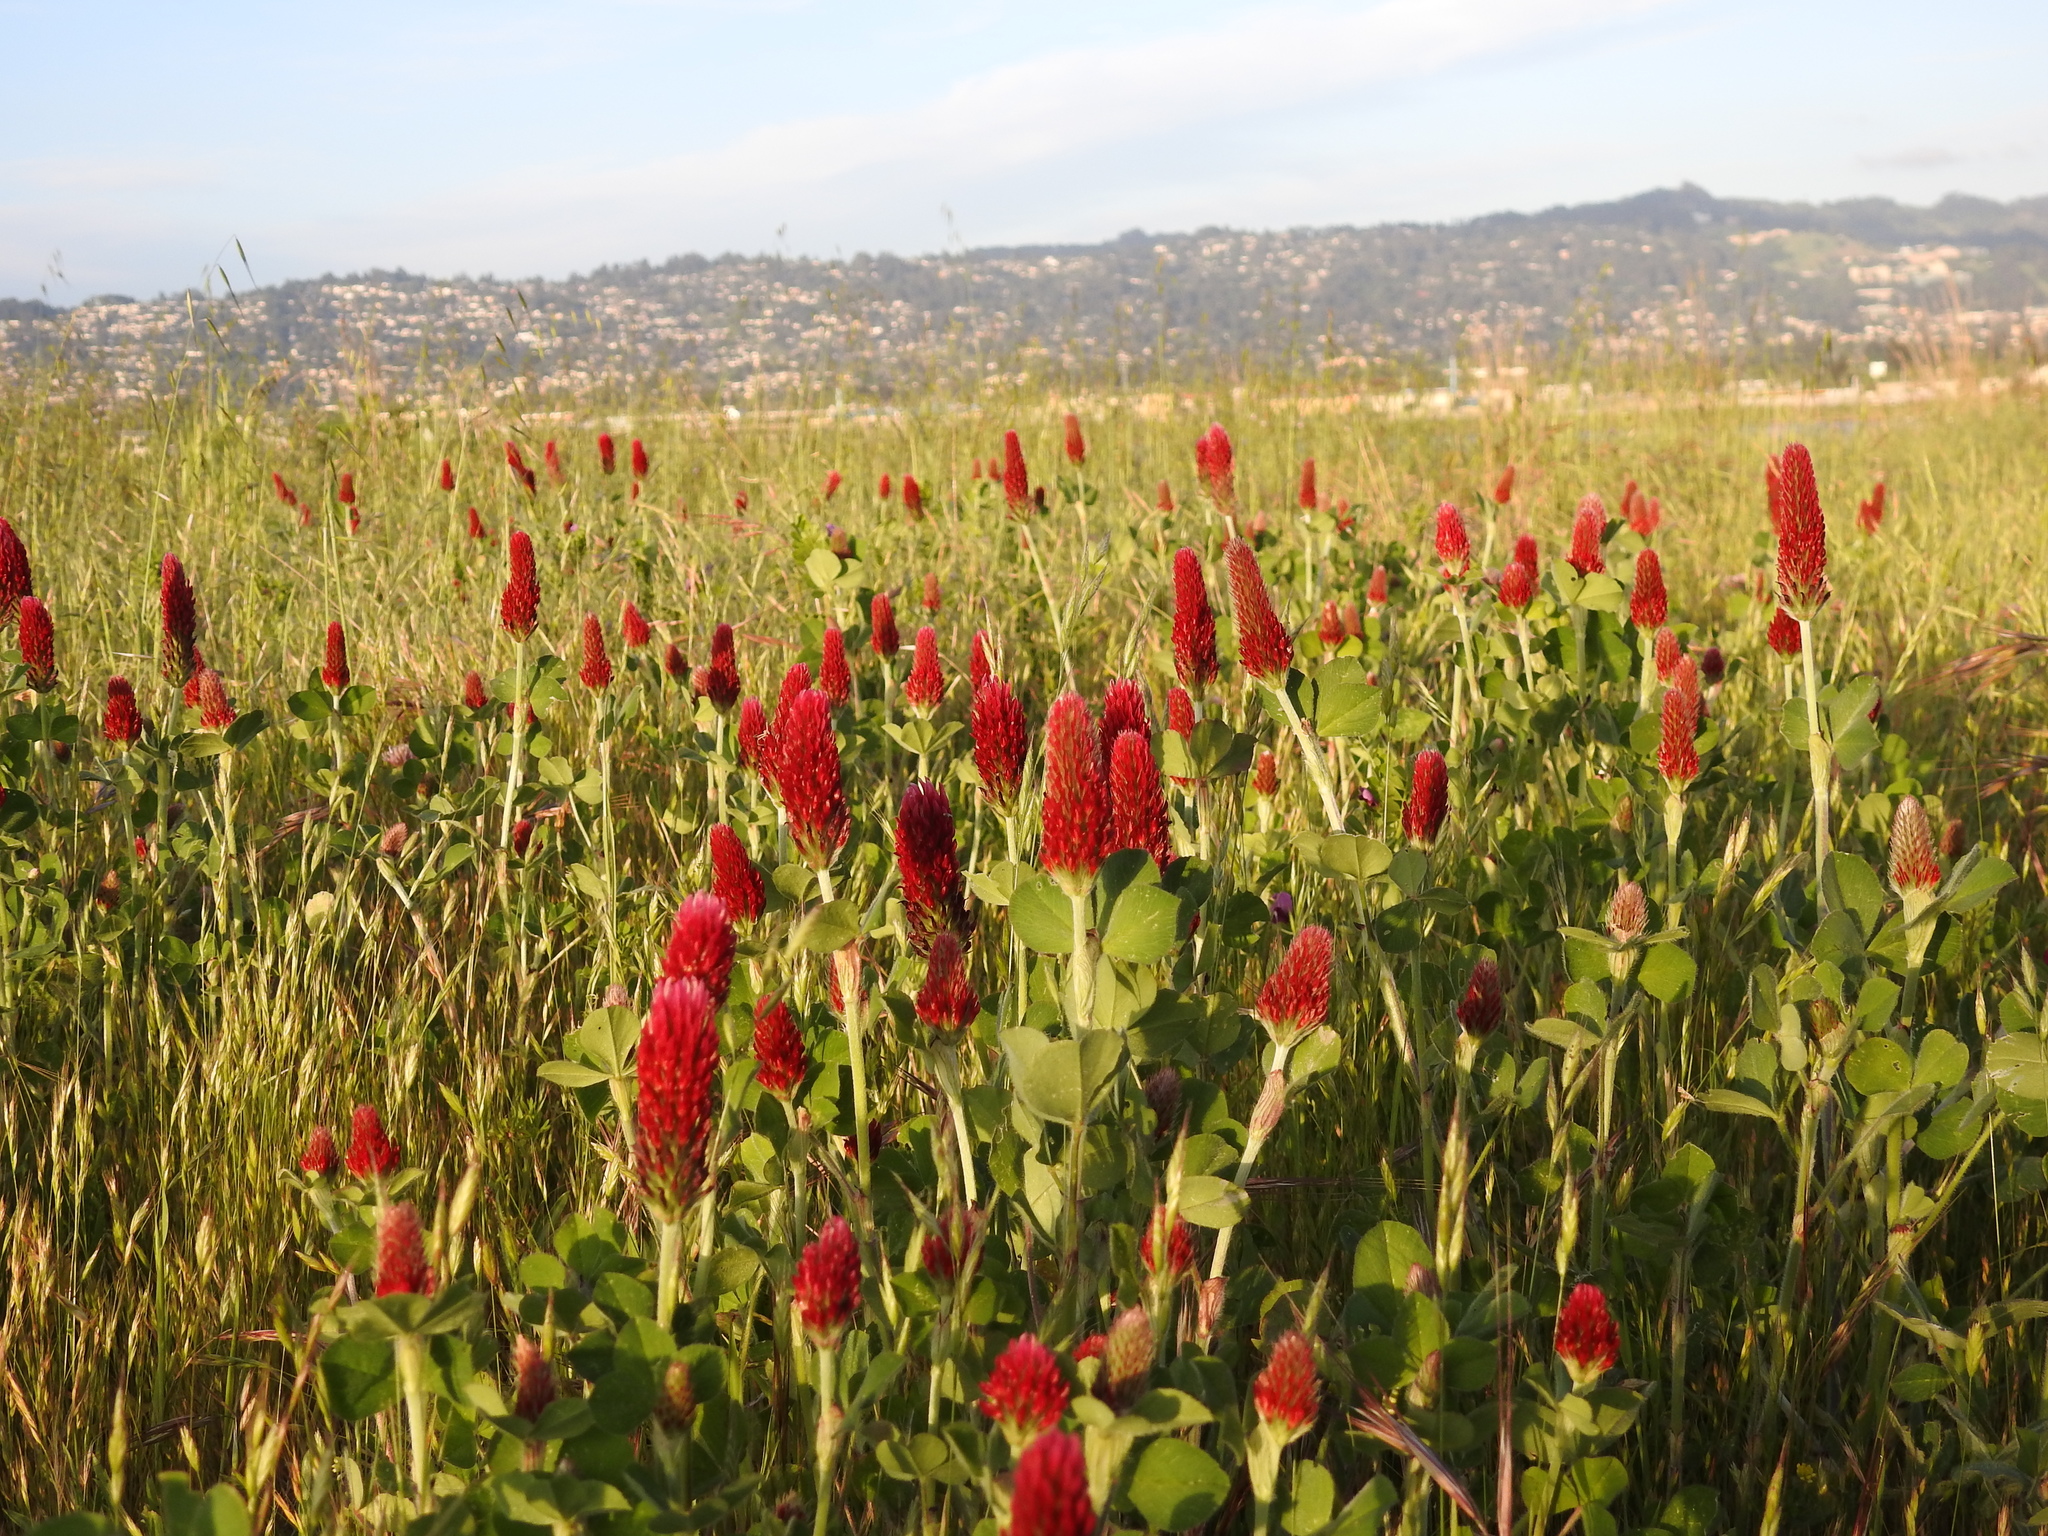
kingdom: Plantae
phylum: Tracheophyta
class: Magnoliopsida
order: Fabales
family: Fabaceae
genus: Trifolium
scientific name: Trifolium incarnatum
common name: Crimson clover
